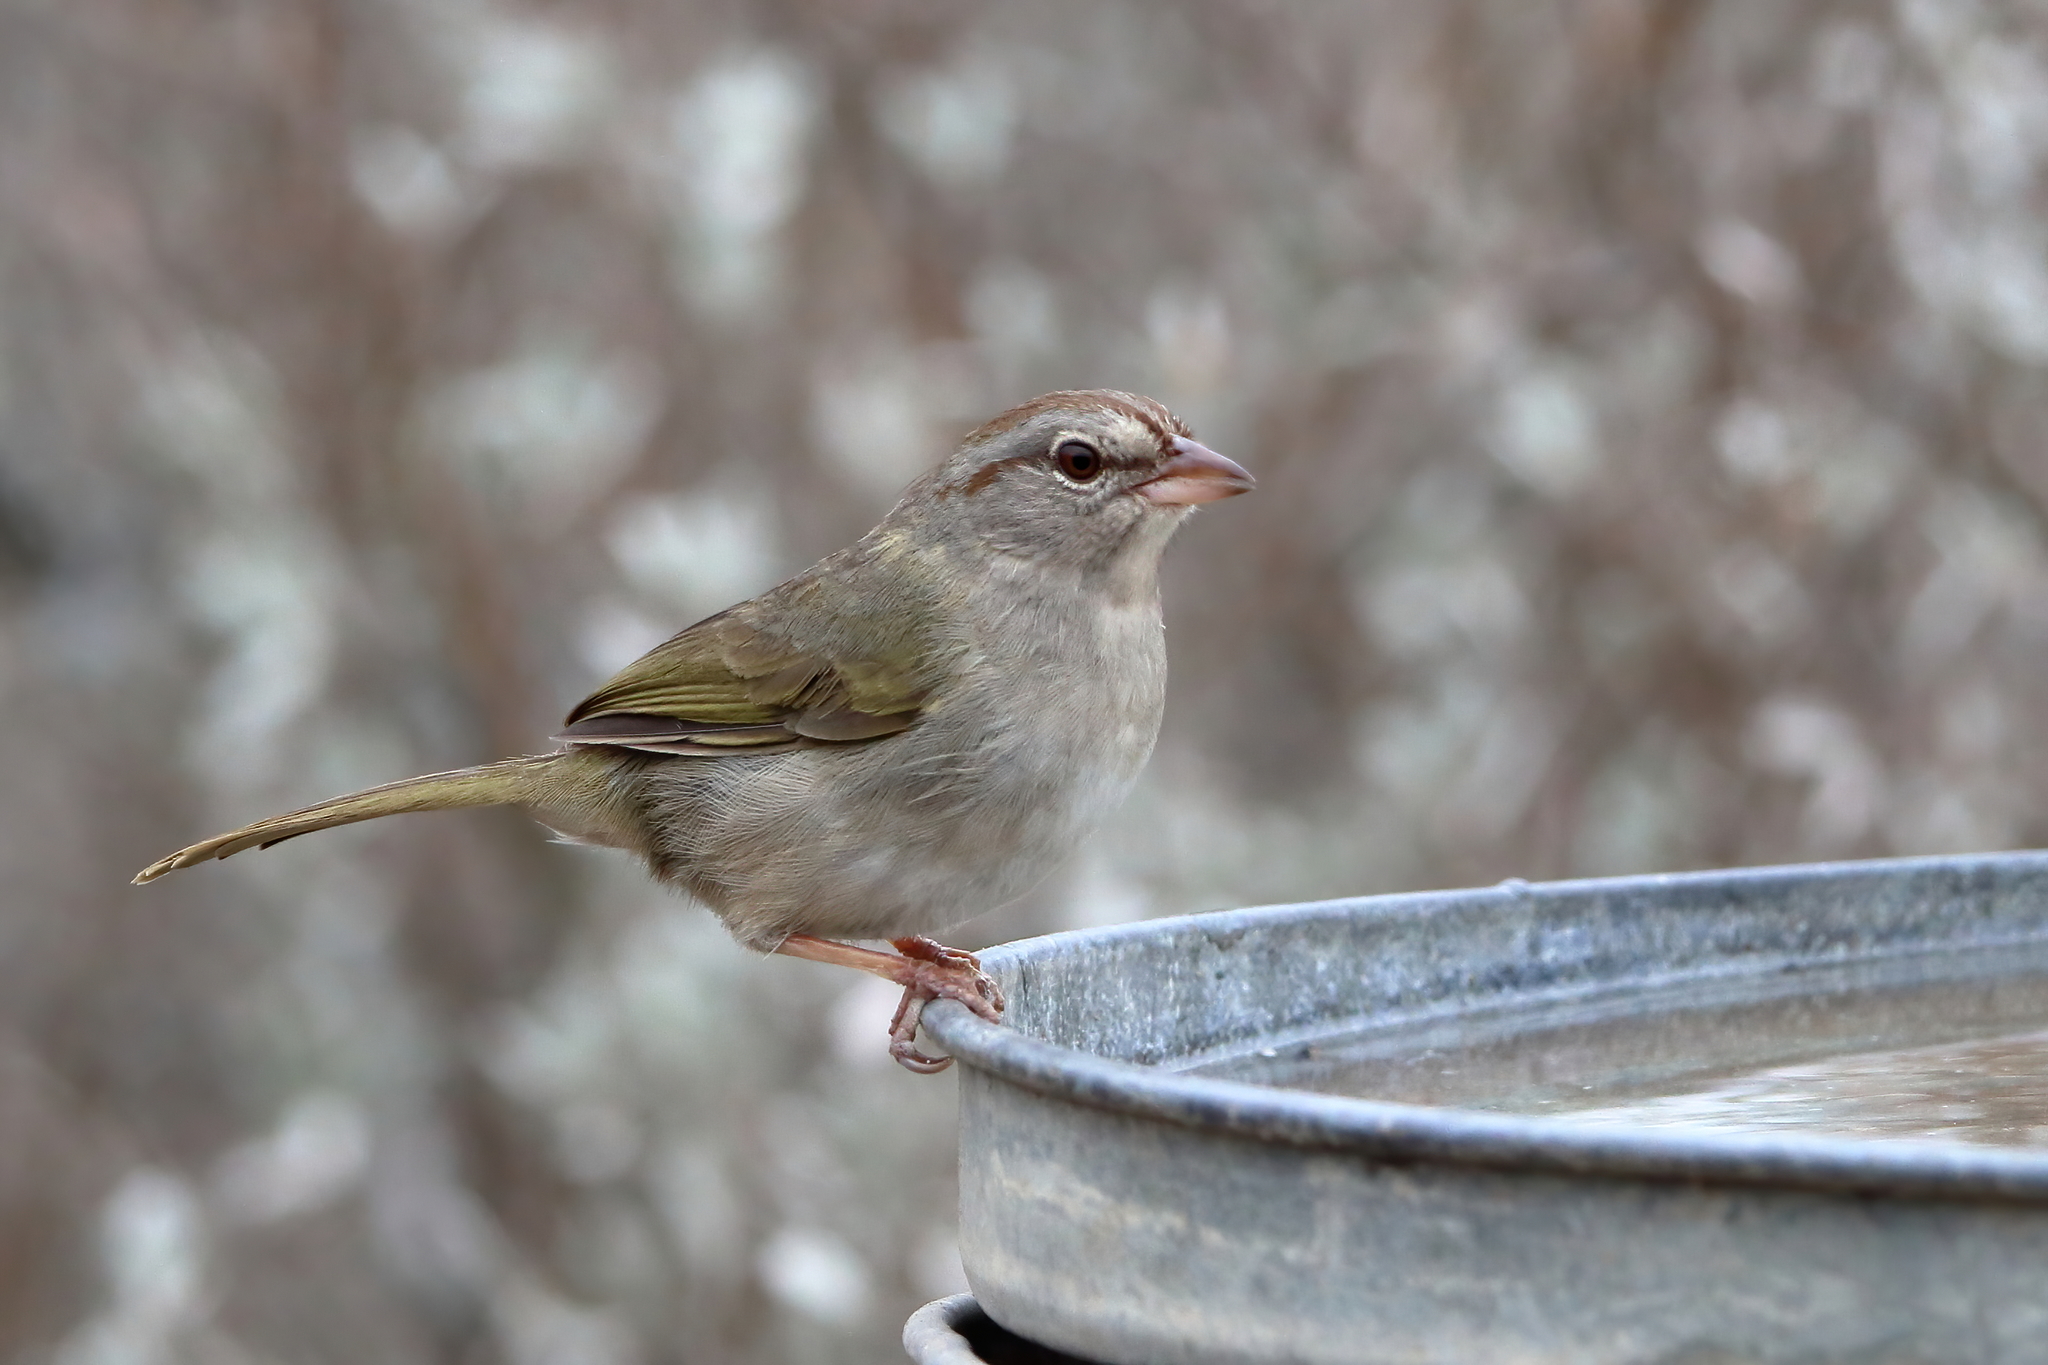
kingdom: Animalia
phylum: Chordata
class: Aves
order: Passeriformes
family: Passerellidae
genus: Arremonops
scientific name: Arremonops rufivirgatus
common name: Olive sparrow
